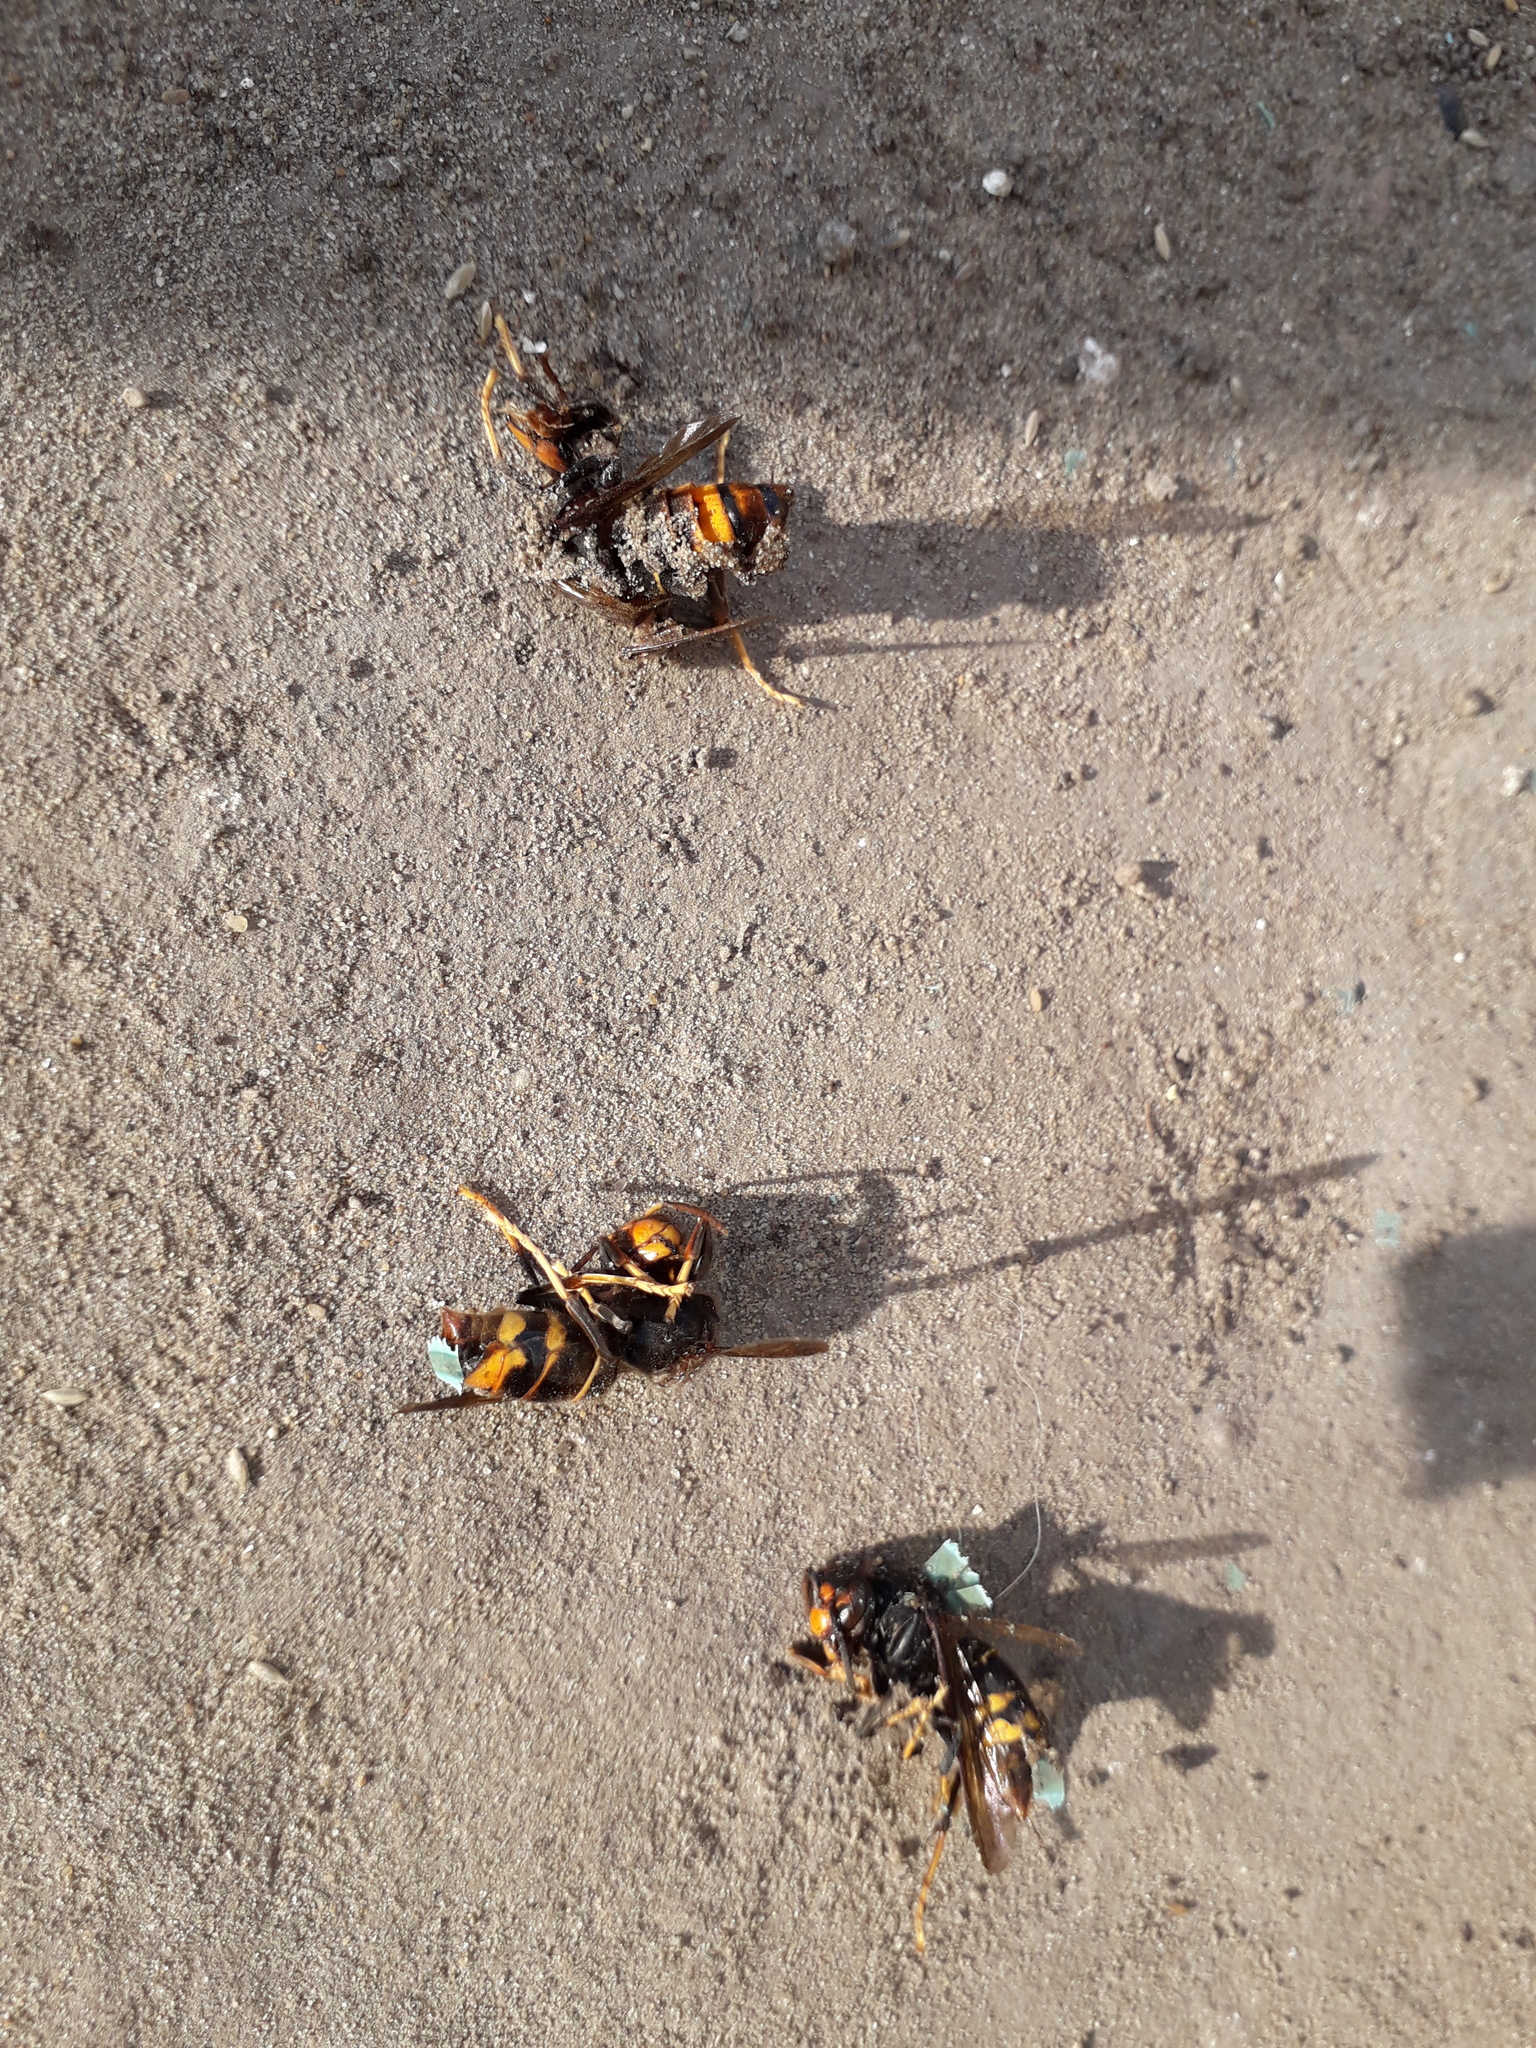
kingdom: Animalia
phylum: Arthropoda
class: Insecta
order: Hymenoptera
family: Vespidae
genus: Vespa
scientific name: Vespa velutina
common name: Asian hornet
